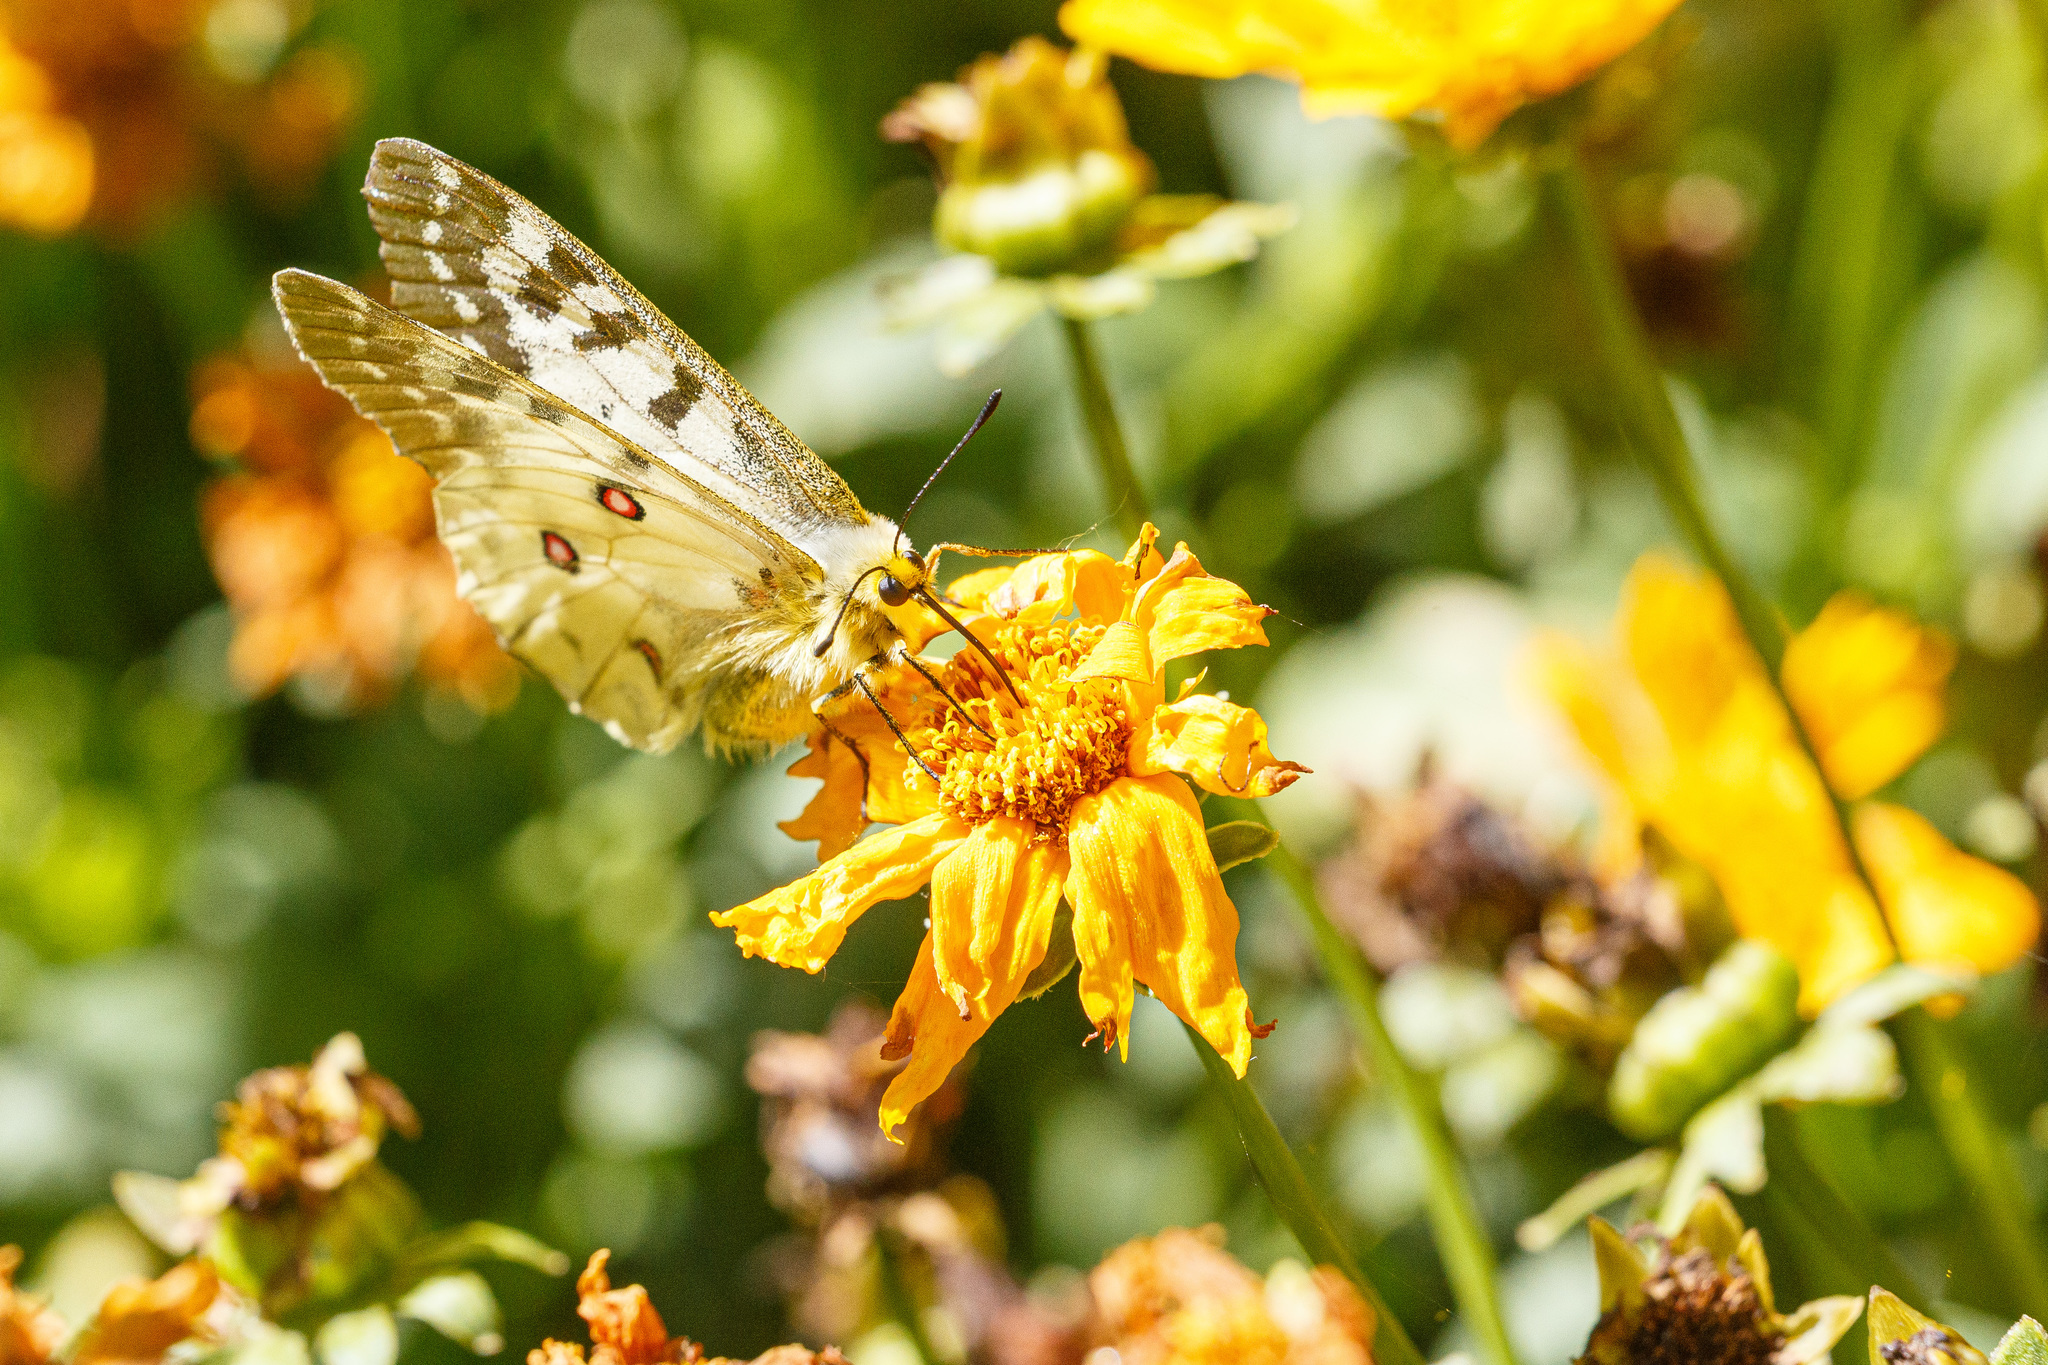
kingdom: Animalia
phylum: Arthropoda
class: Insecta
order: Lepidoptera
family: Papilionidae
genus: Parnassius
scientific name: Parnassius clodius
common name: American apollo
